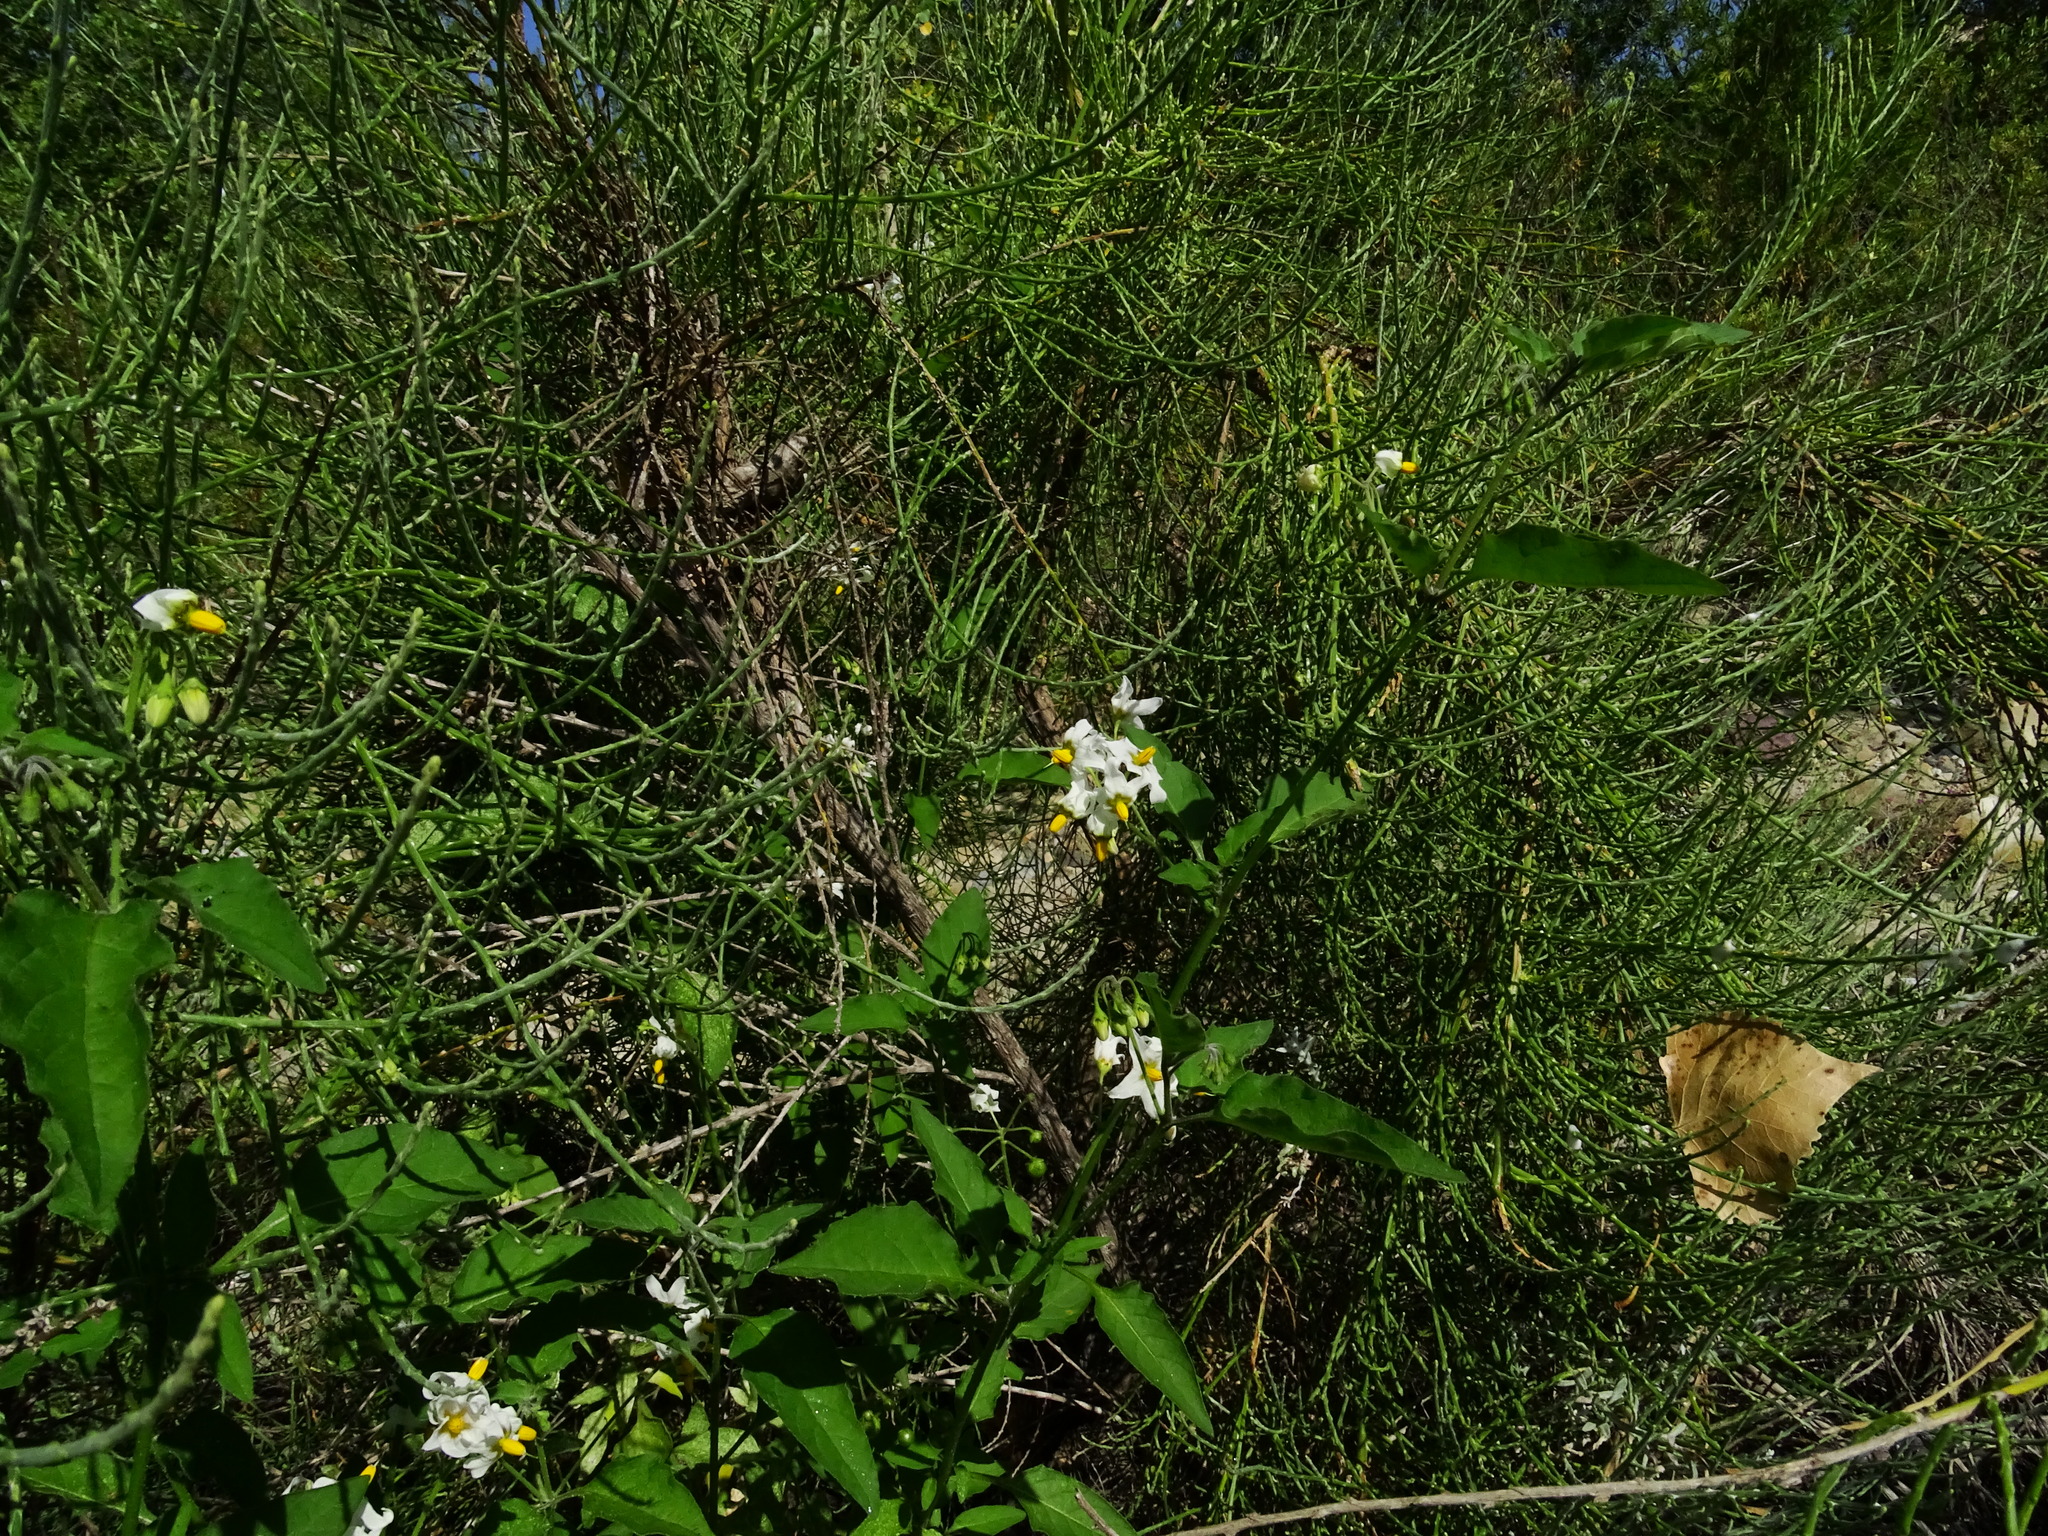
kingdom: Plantae
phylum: Tracheophyta
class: Magnoliopsida
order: Solanales
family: Solanaceae
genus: Solanum
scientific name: Solanum douglasii
